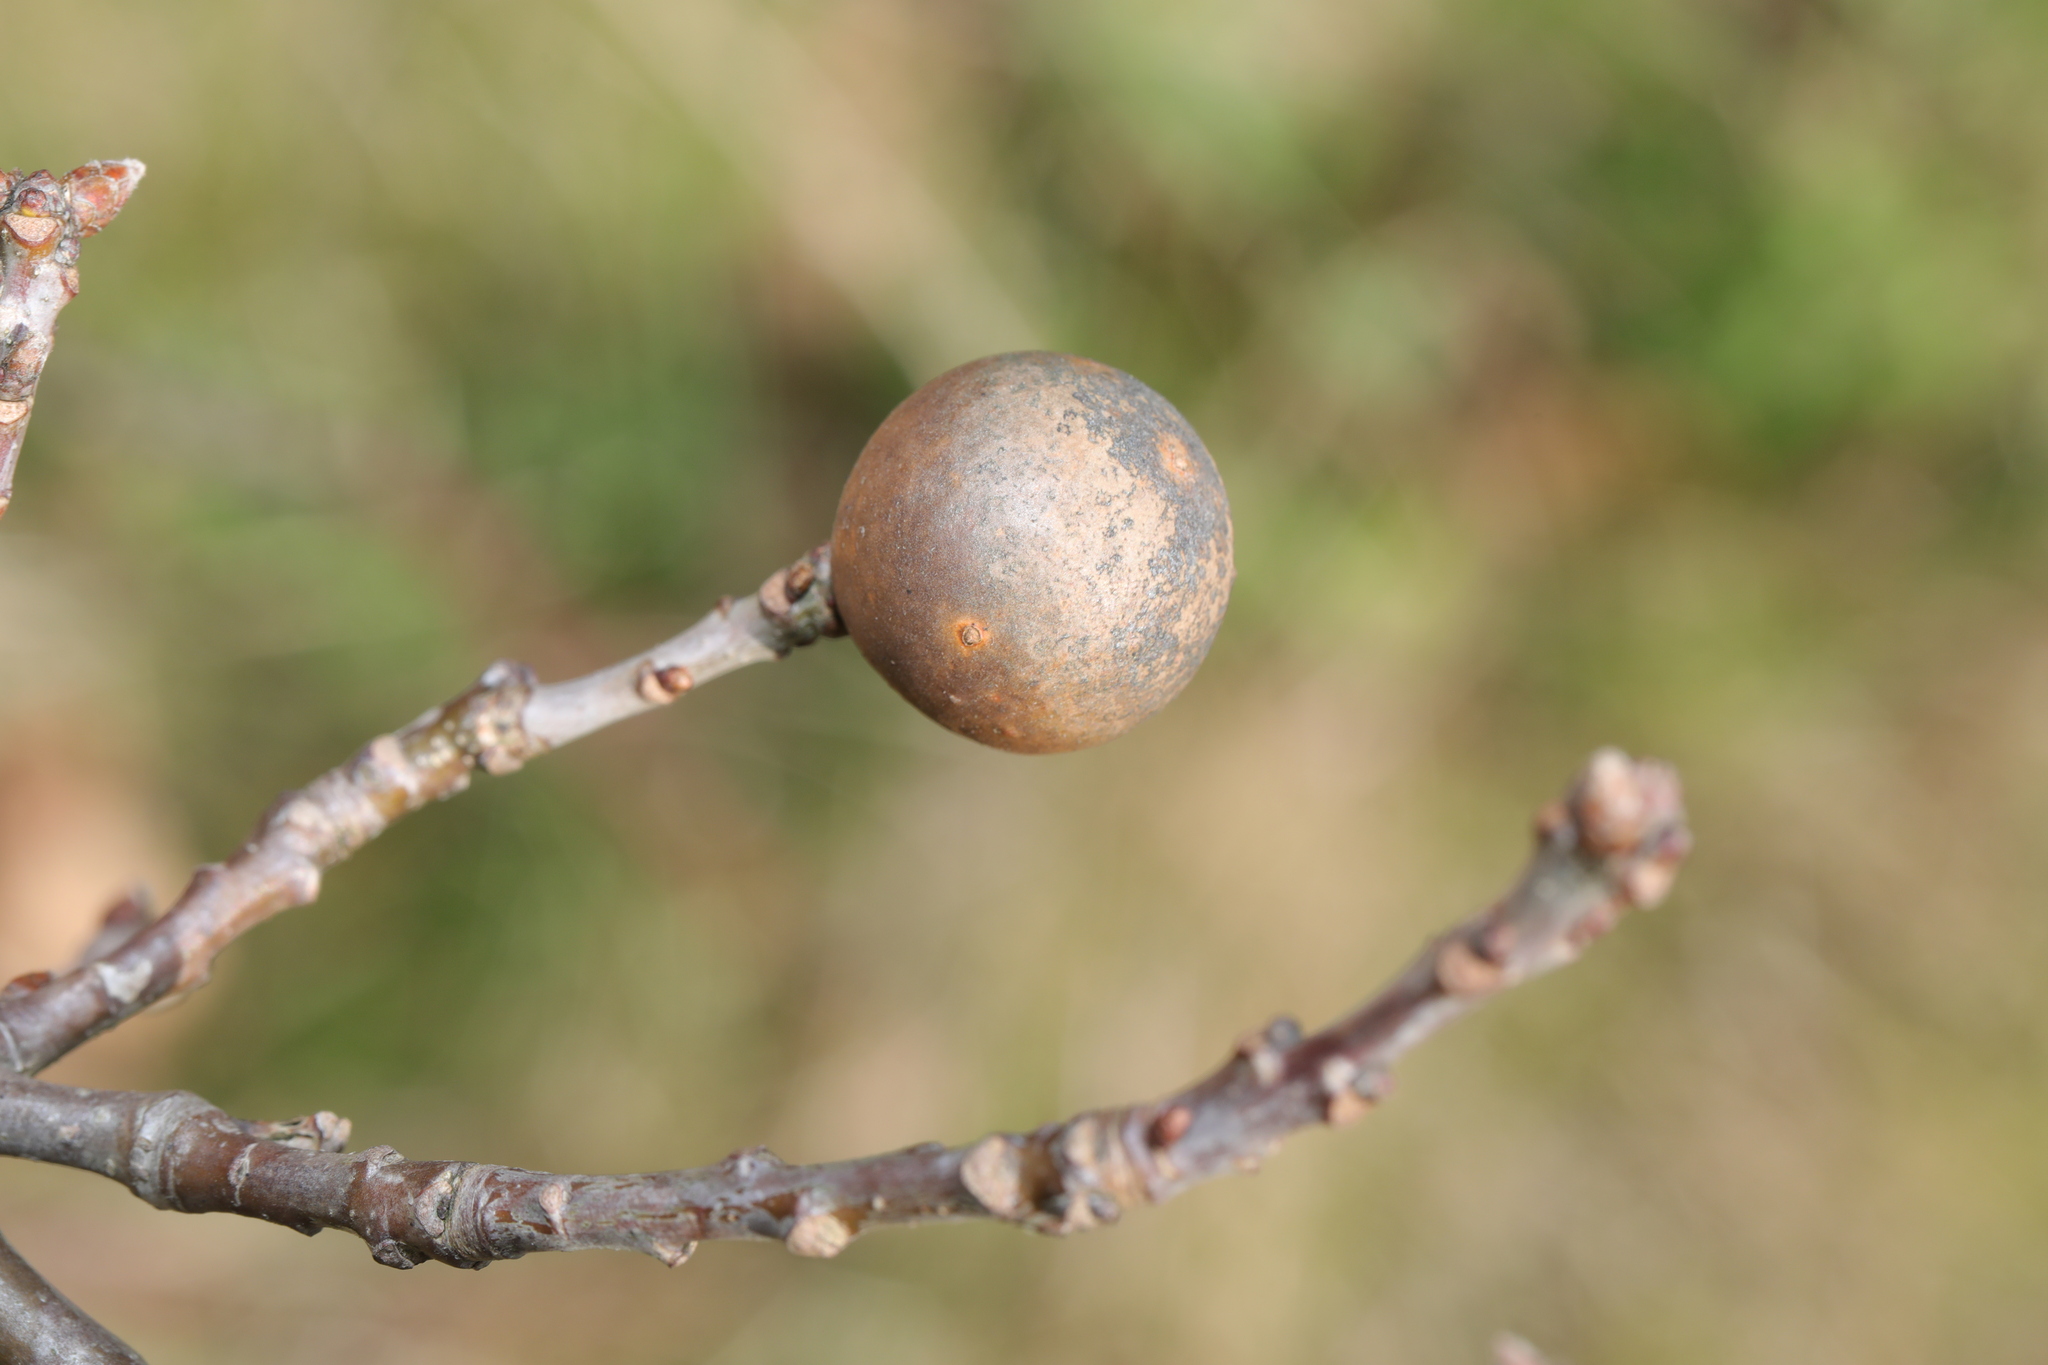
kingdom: Animalia
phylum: Arthropoda
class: Insecta
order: Hymenoptera
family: Cynipidae
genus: Andricus
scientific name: Andricus kollari
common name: Marble gall
